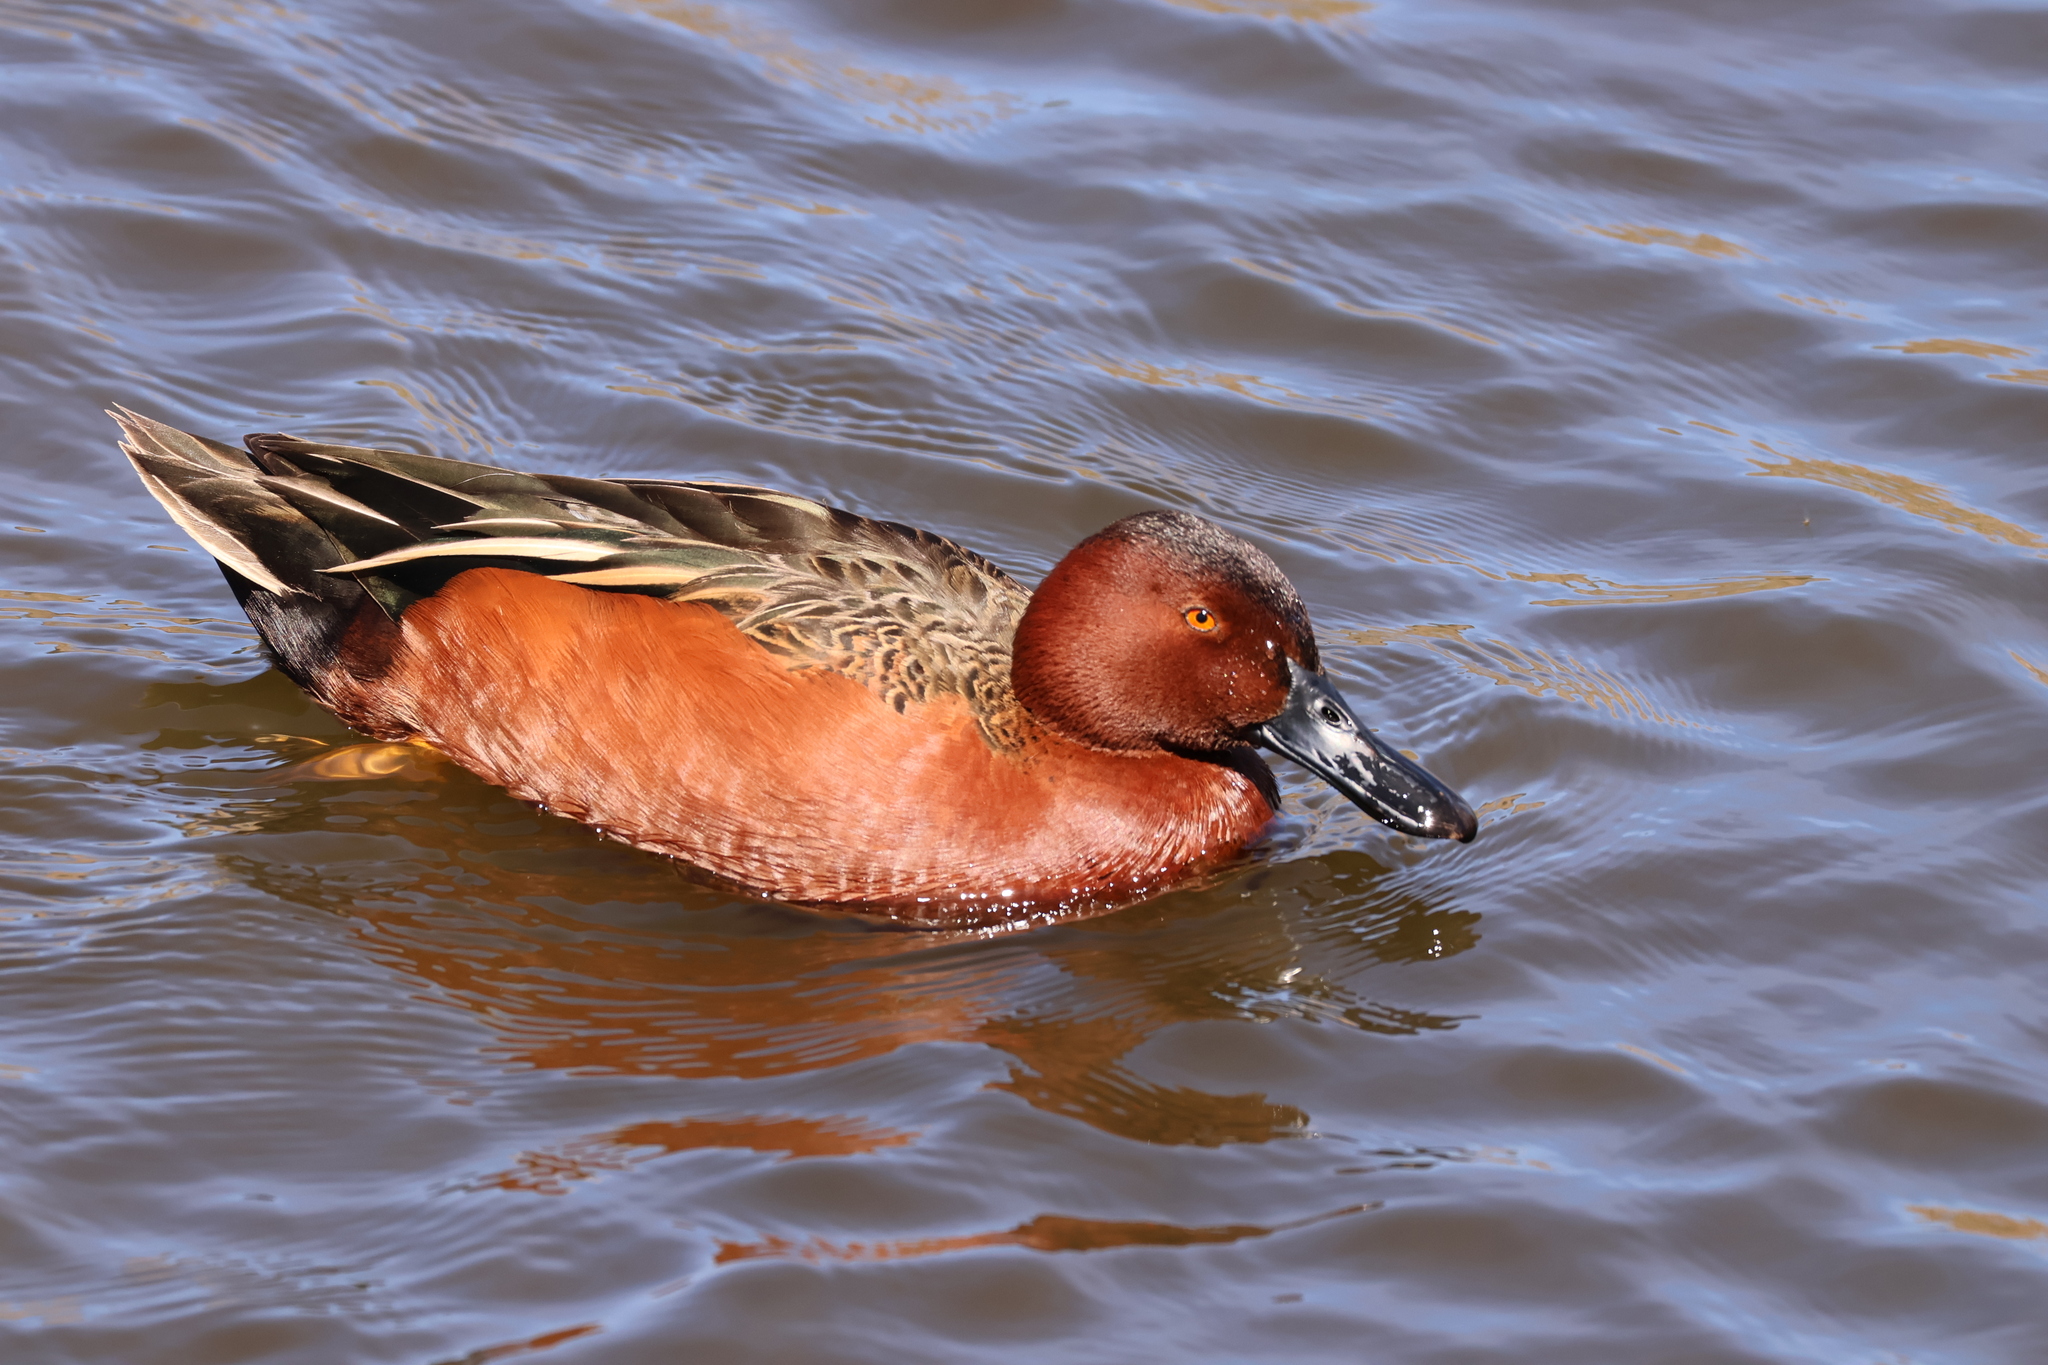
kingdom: Animalia
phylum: Chordata
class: Aves
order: Anseriformes
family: Anatidae
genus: Spatula
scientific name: Spatula cyanoptera
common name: Cinnamon teal
